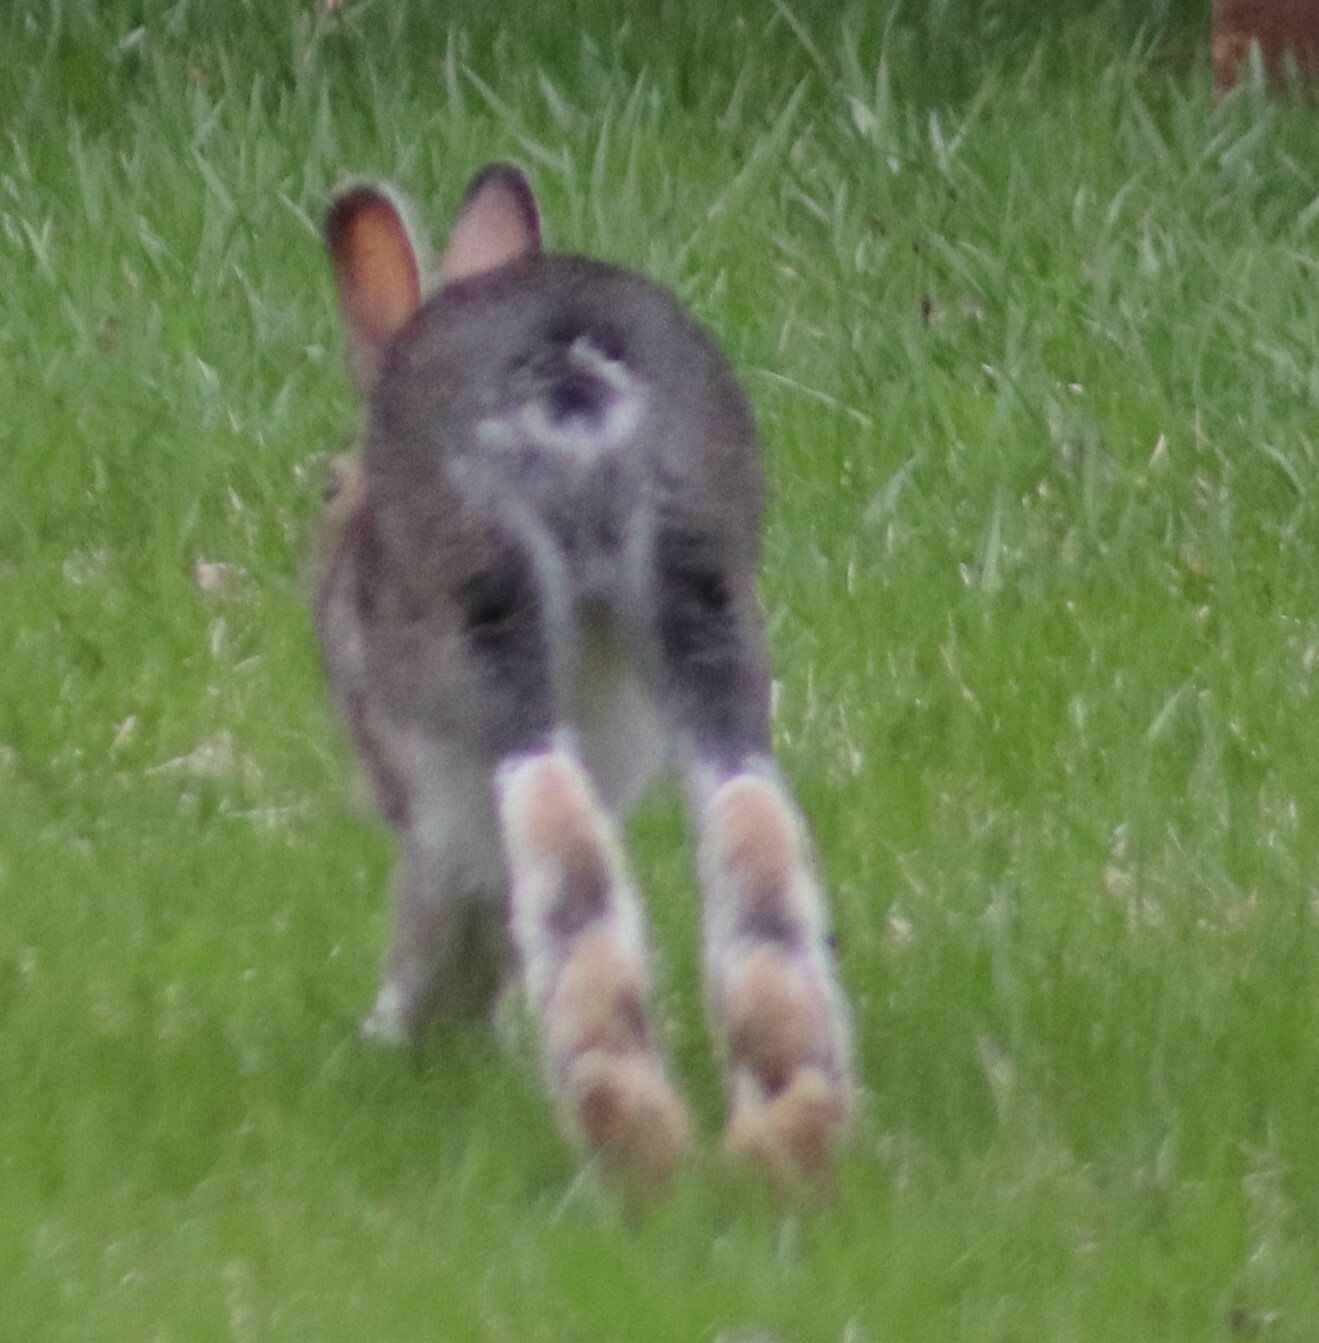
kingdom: Animalia
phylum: Chordata
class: Mammalia
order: Lagomorpha
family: Leporidae
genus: Lepus
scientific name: Lepus americanus
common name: Snowshoe hare
